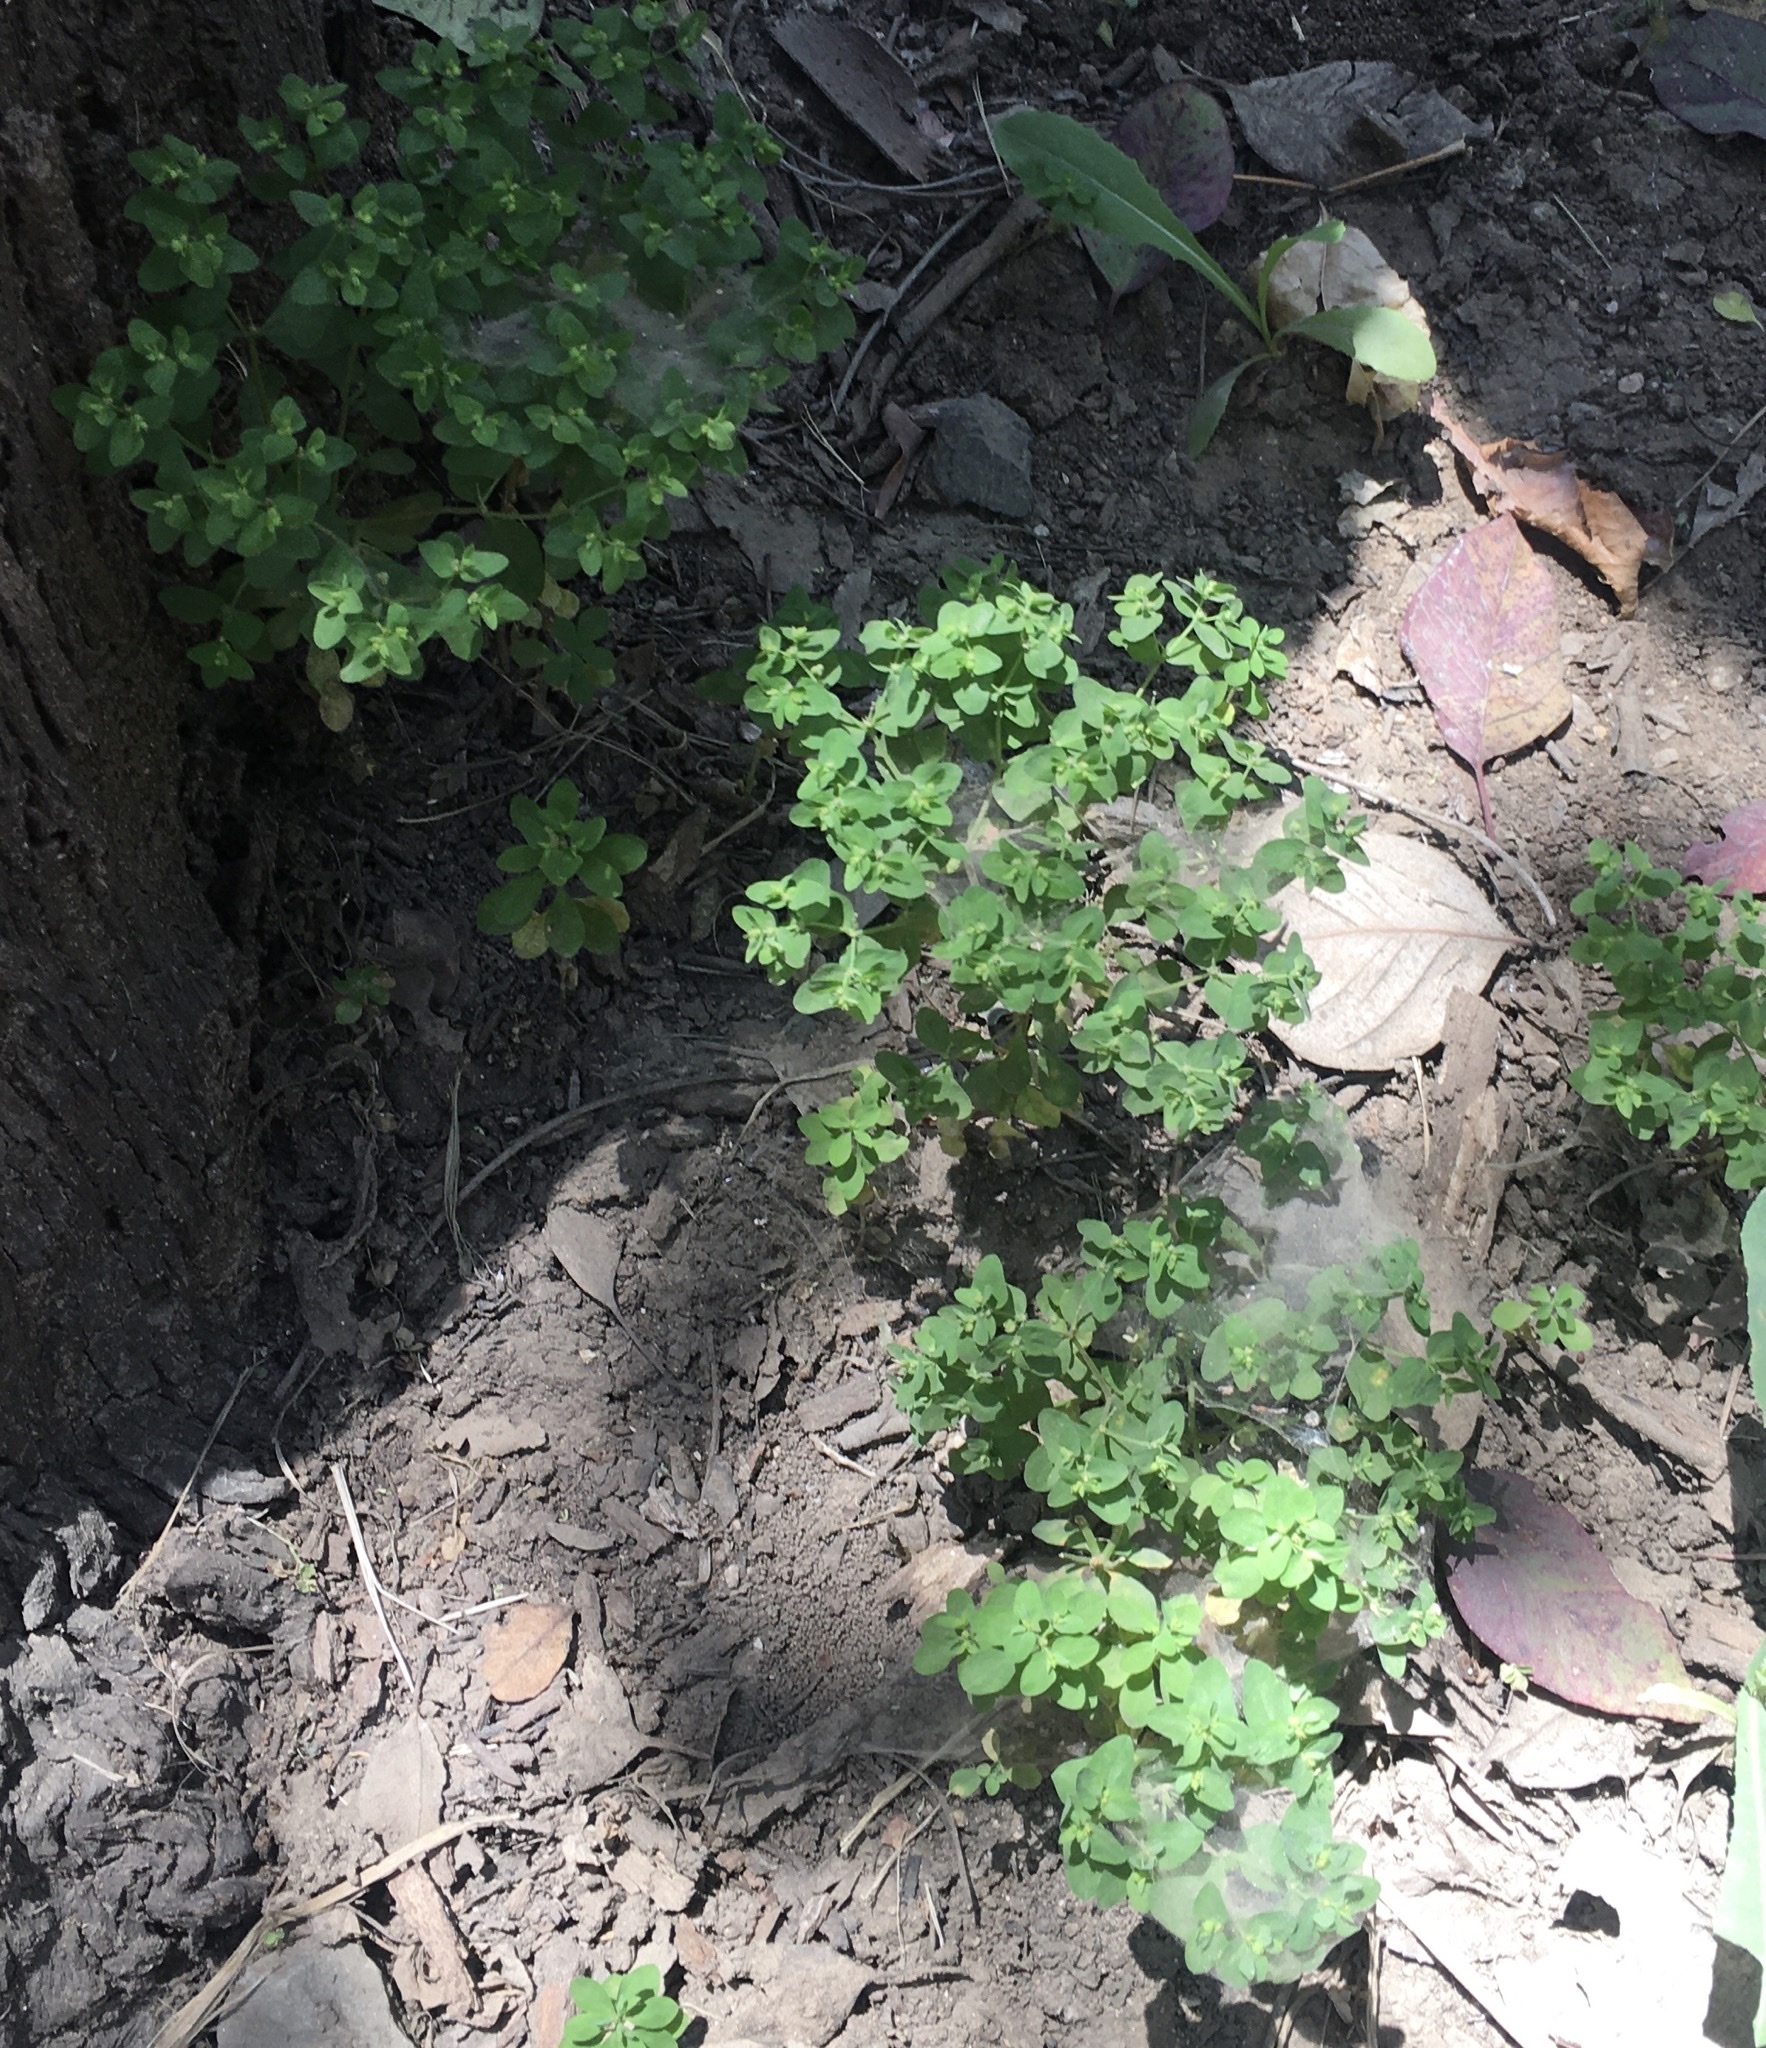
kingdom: Plantae
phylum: Tracheophyta
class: Magnoliopsida
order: Malpighiales
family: Euphorbiaceae
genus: Euphorbia
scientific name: Euphorbia peplus
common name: Petty spurge
